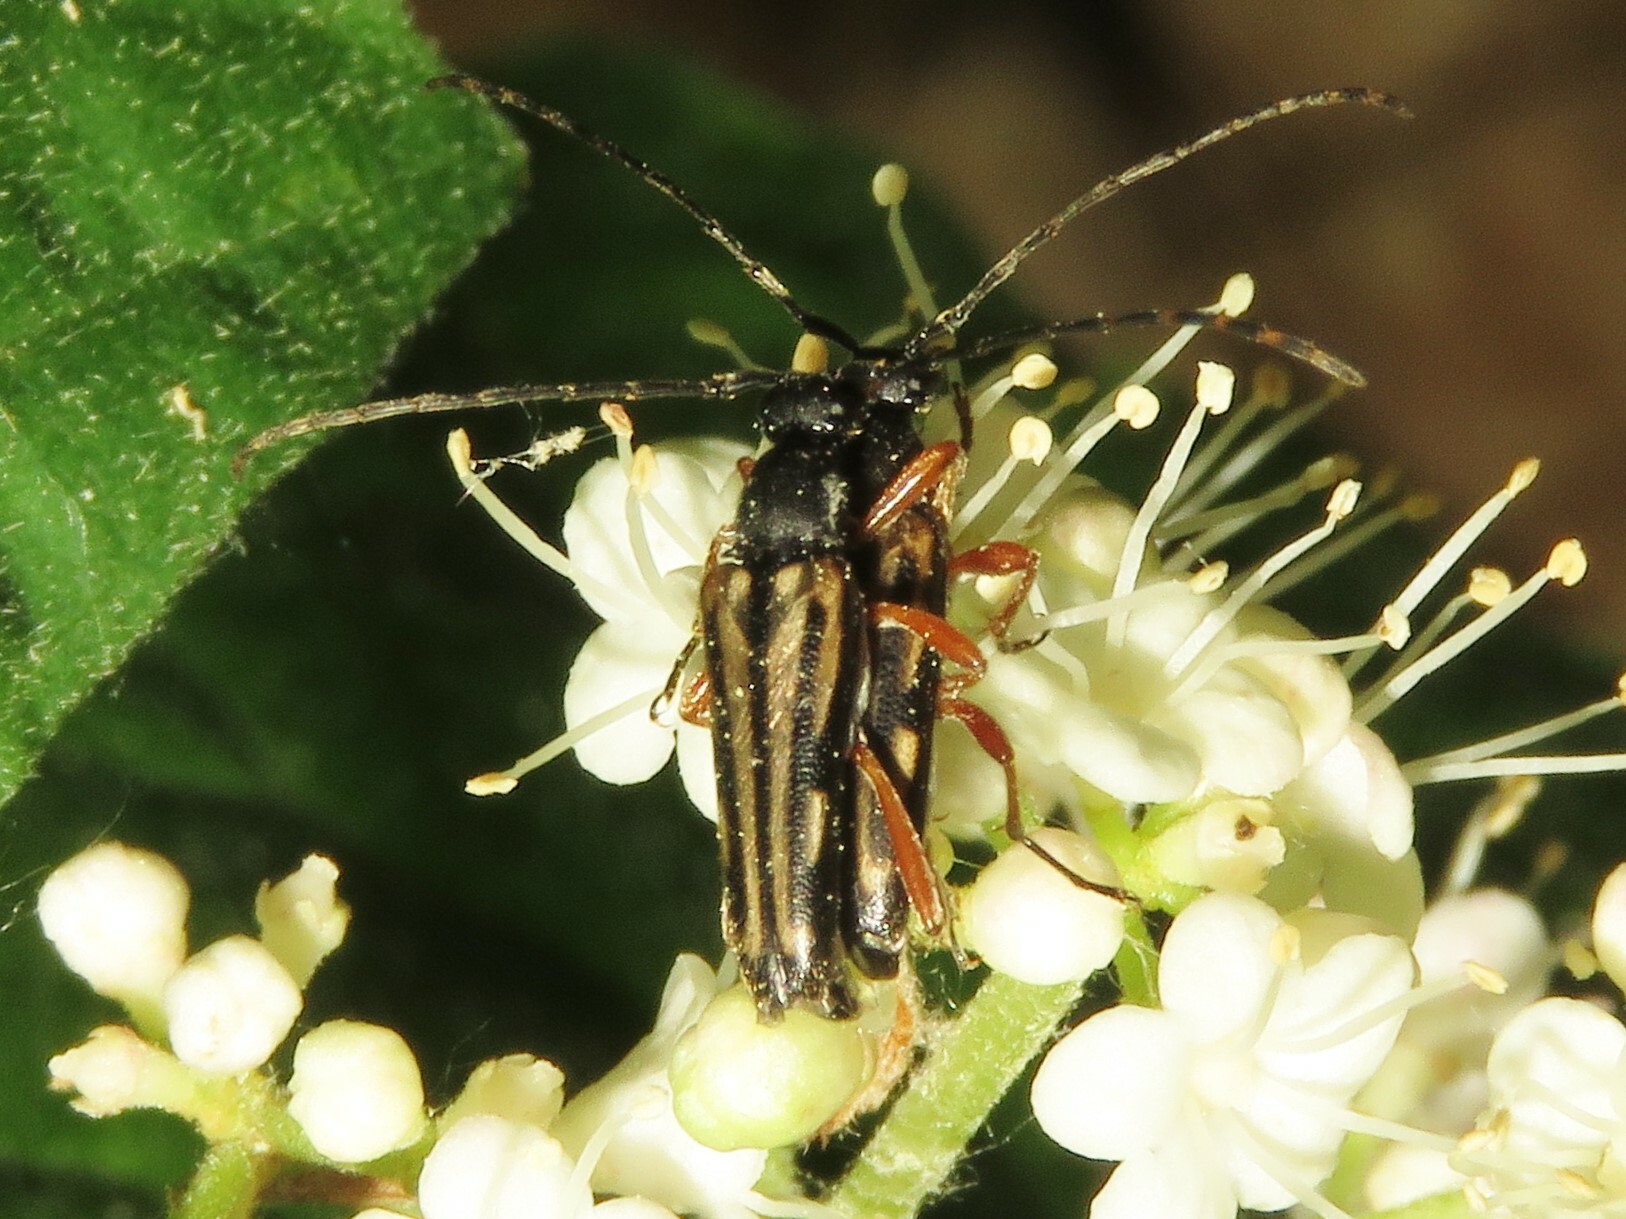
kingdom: Animalia
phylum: Arthropoda
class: Insecta
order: Coleoptera
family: Cerambycidae
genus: Analeptura
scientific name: Analeptura lineola
